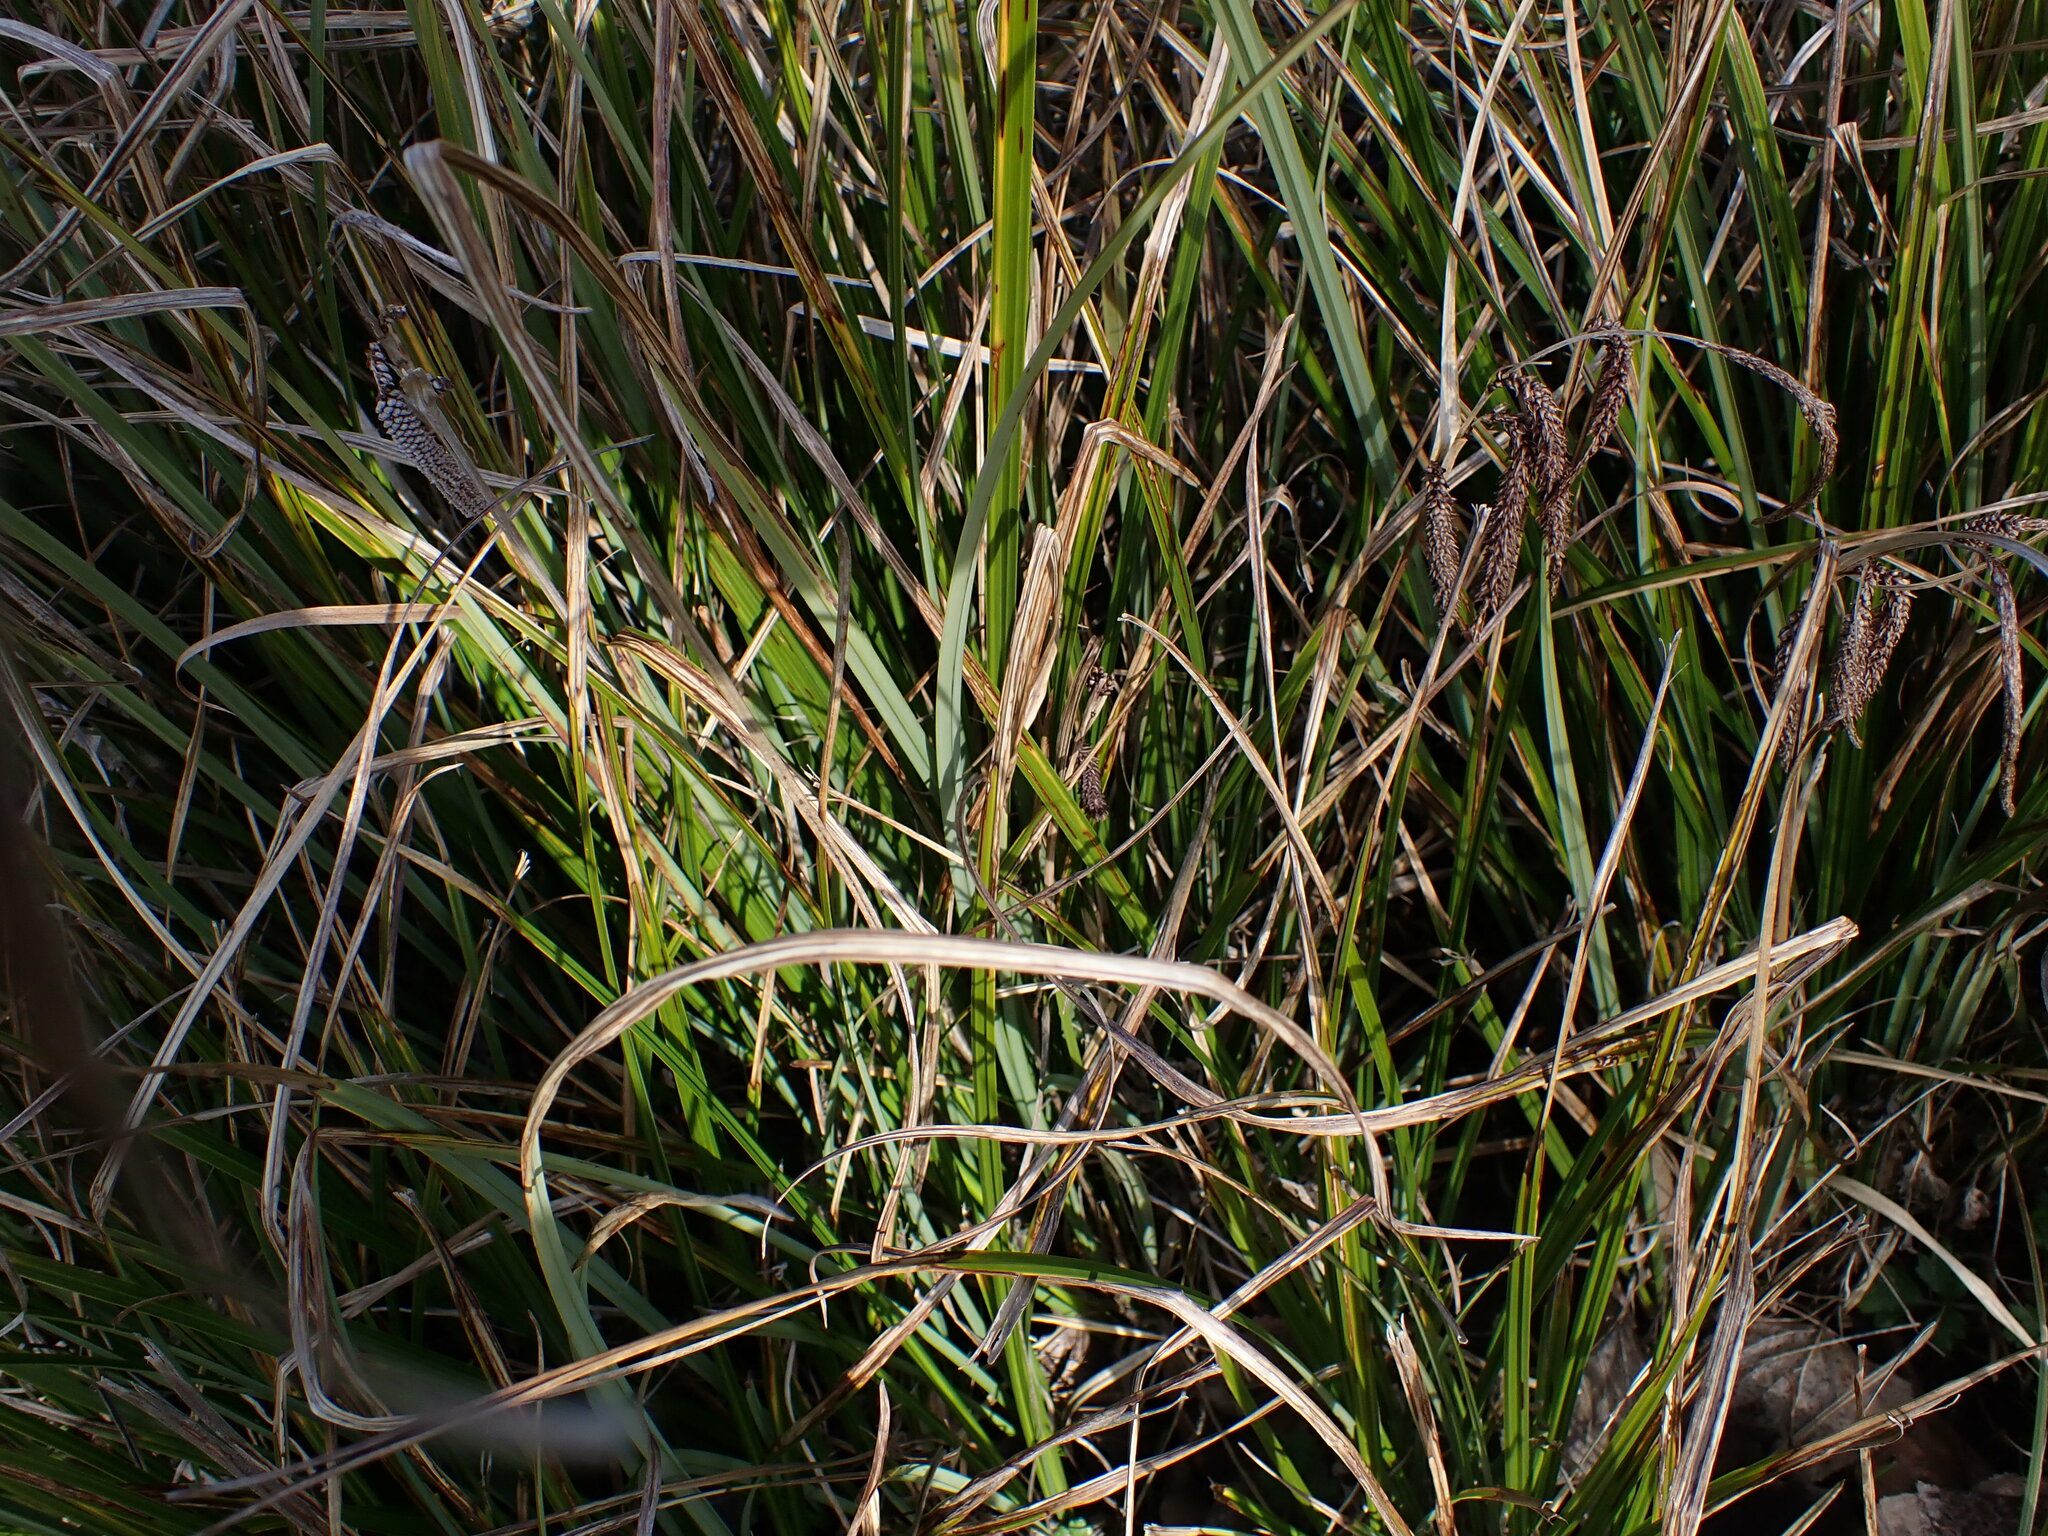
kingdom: Plantae
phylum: Tracheophyta
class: Liliopsida
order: Poales
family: Cyperaceae
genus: Carex
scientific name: Carex obnupta
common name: Slough sedge
